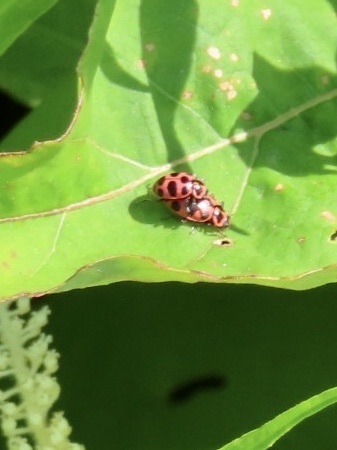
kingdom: Animalia
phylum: Arthropoda
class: Insecta
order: Coleoptera
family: Coccinellidae
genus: Coleomegilla
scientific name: Coleomegilla maculata
